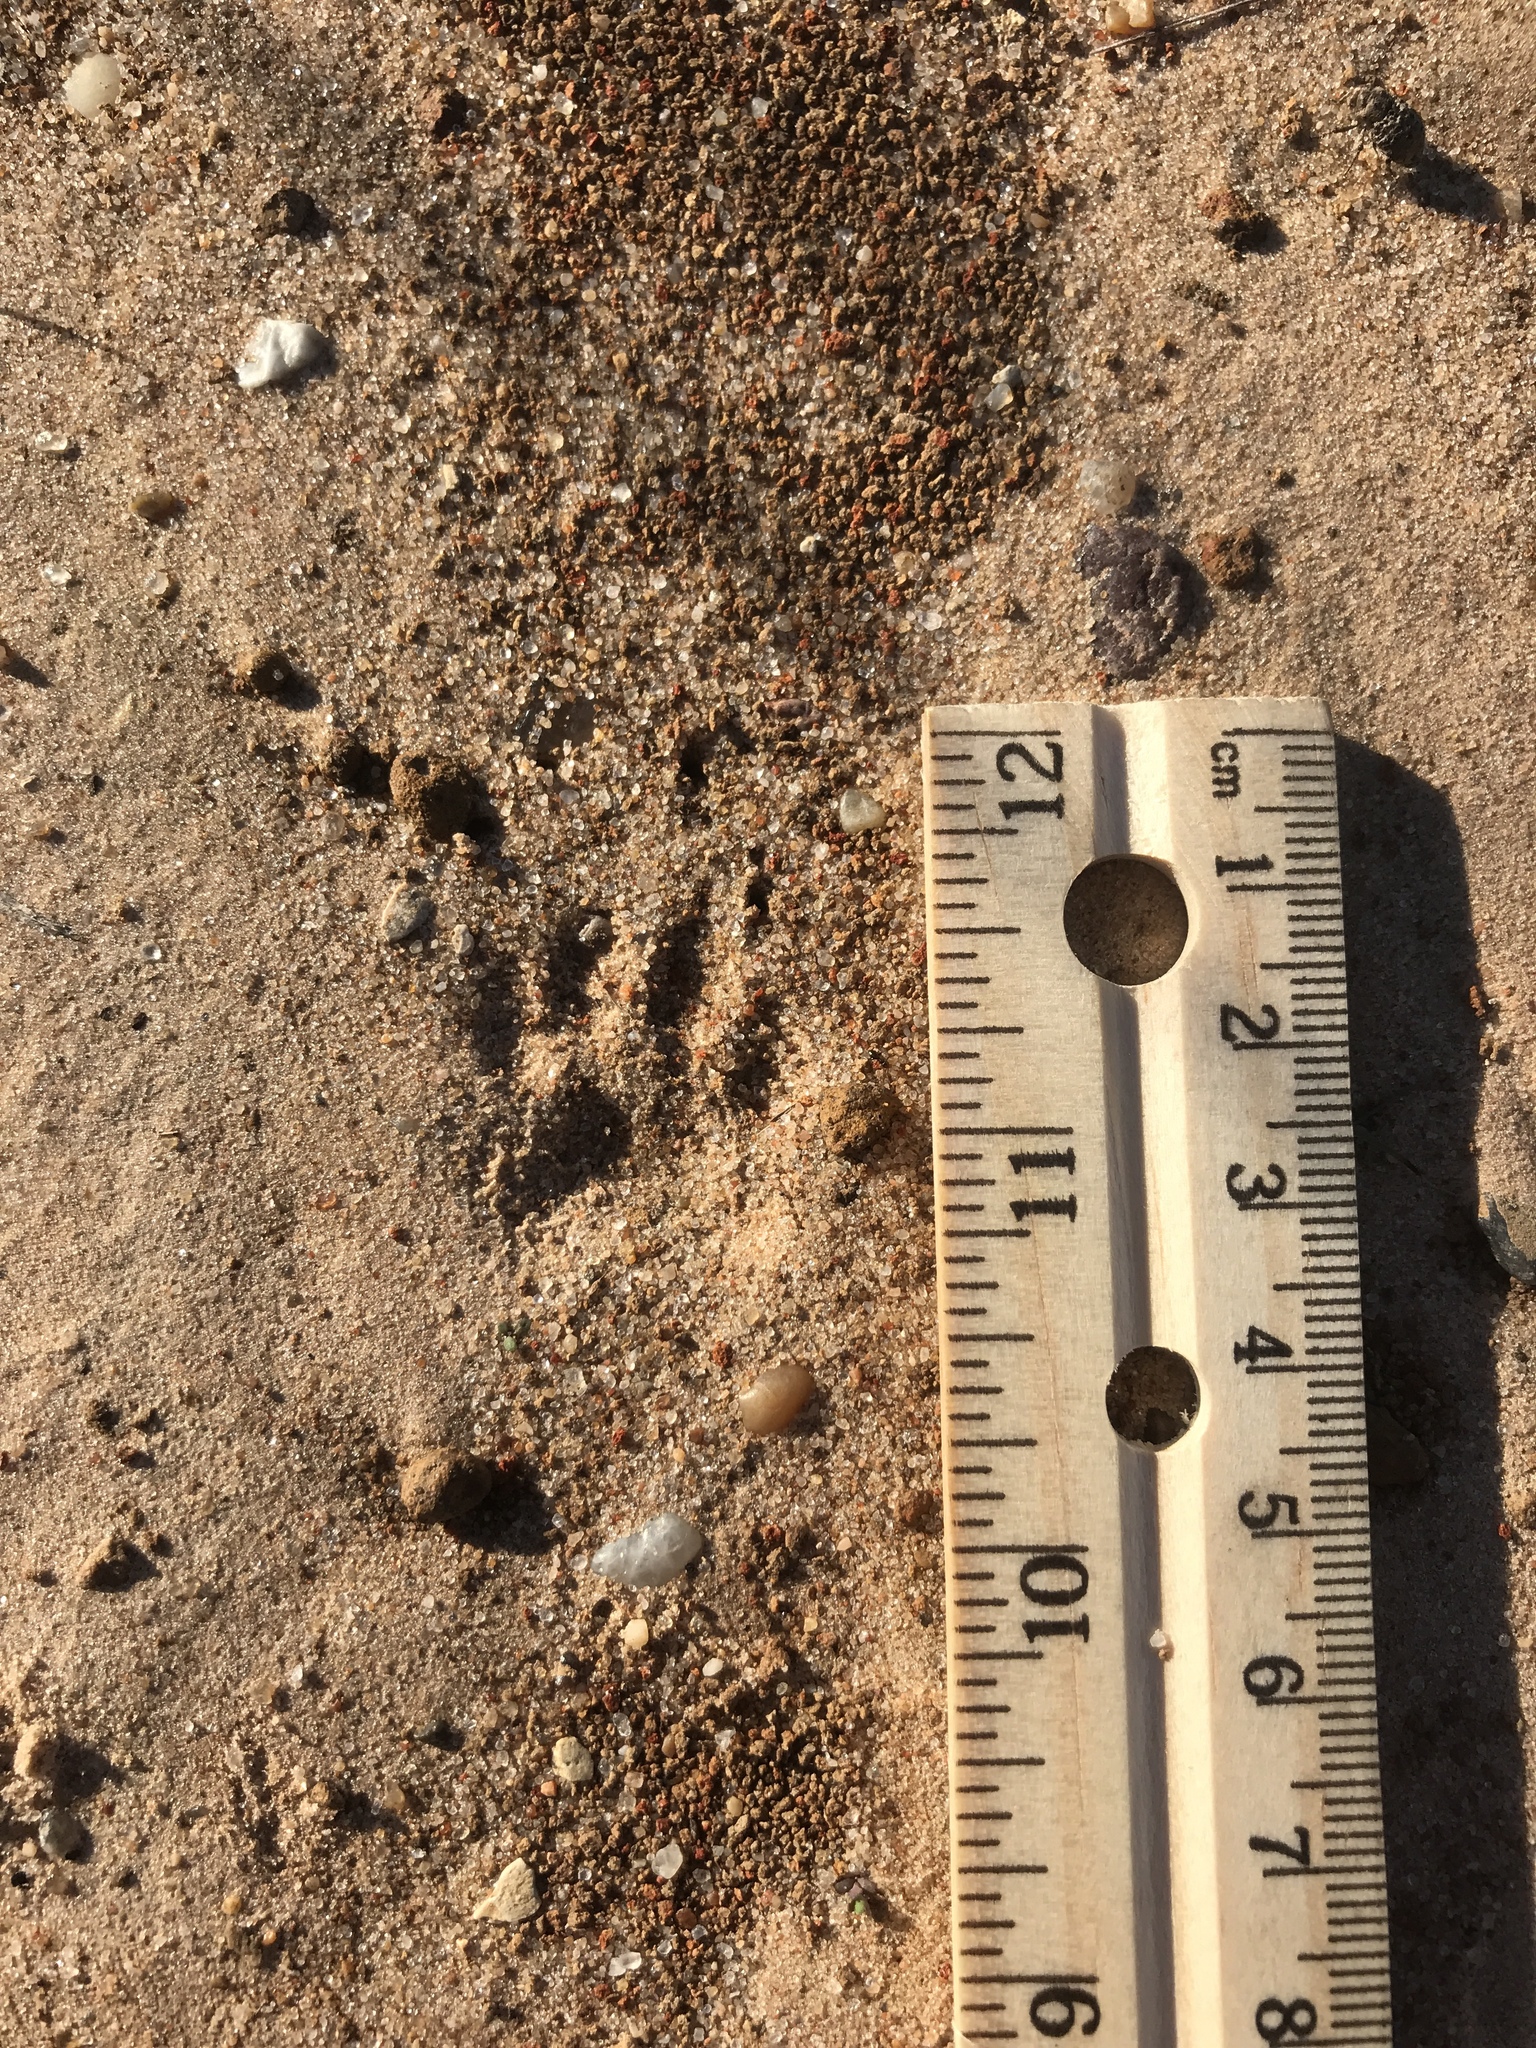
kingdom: Animalia
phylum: Chordata
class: Mammalia
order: Carnivora
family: Mephitidae
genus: Mephitis
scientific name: Mephitis mephitis
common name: Striped skunk
